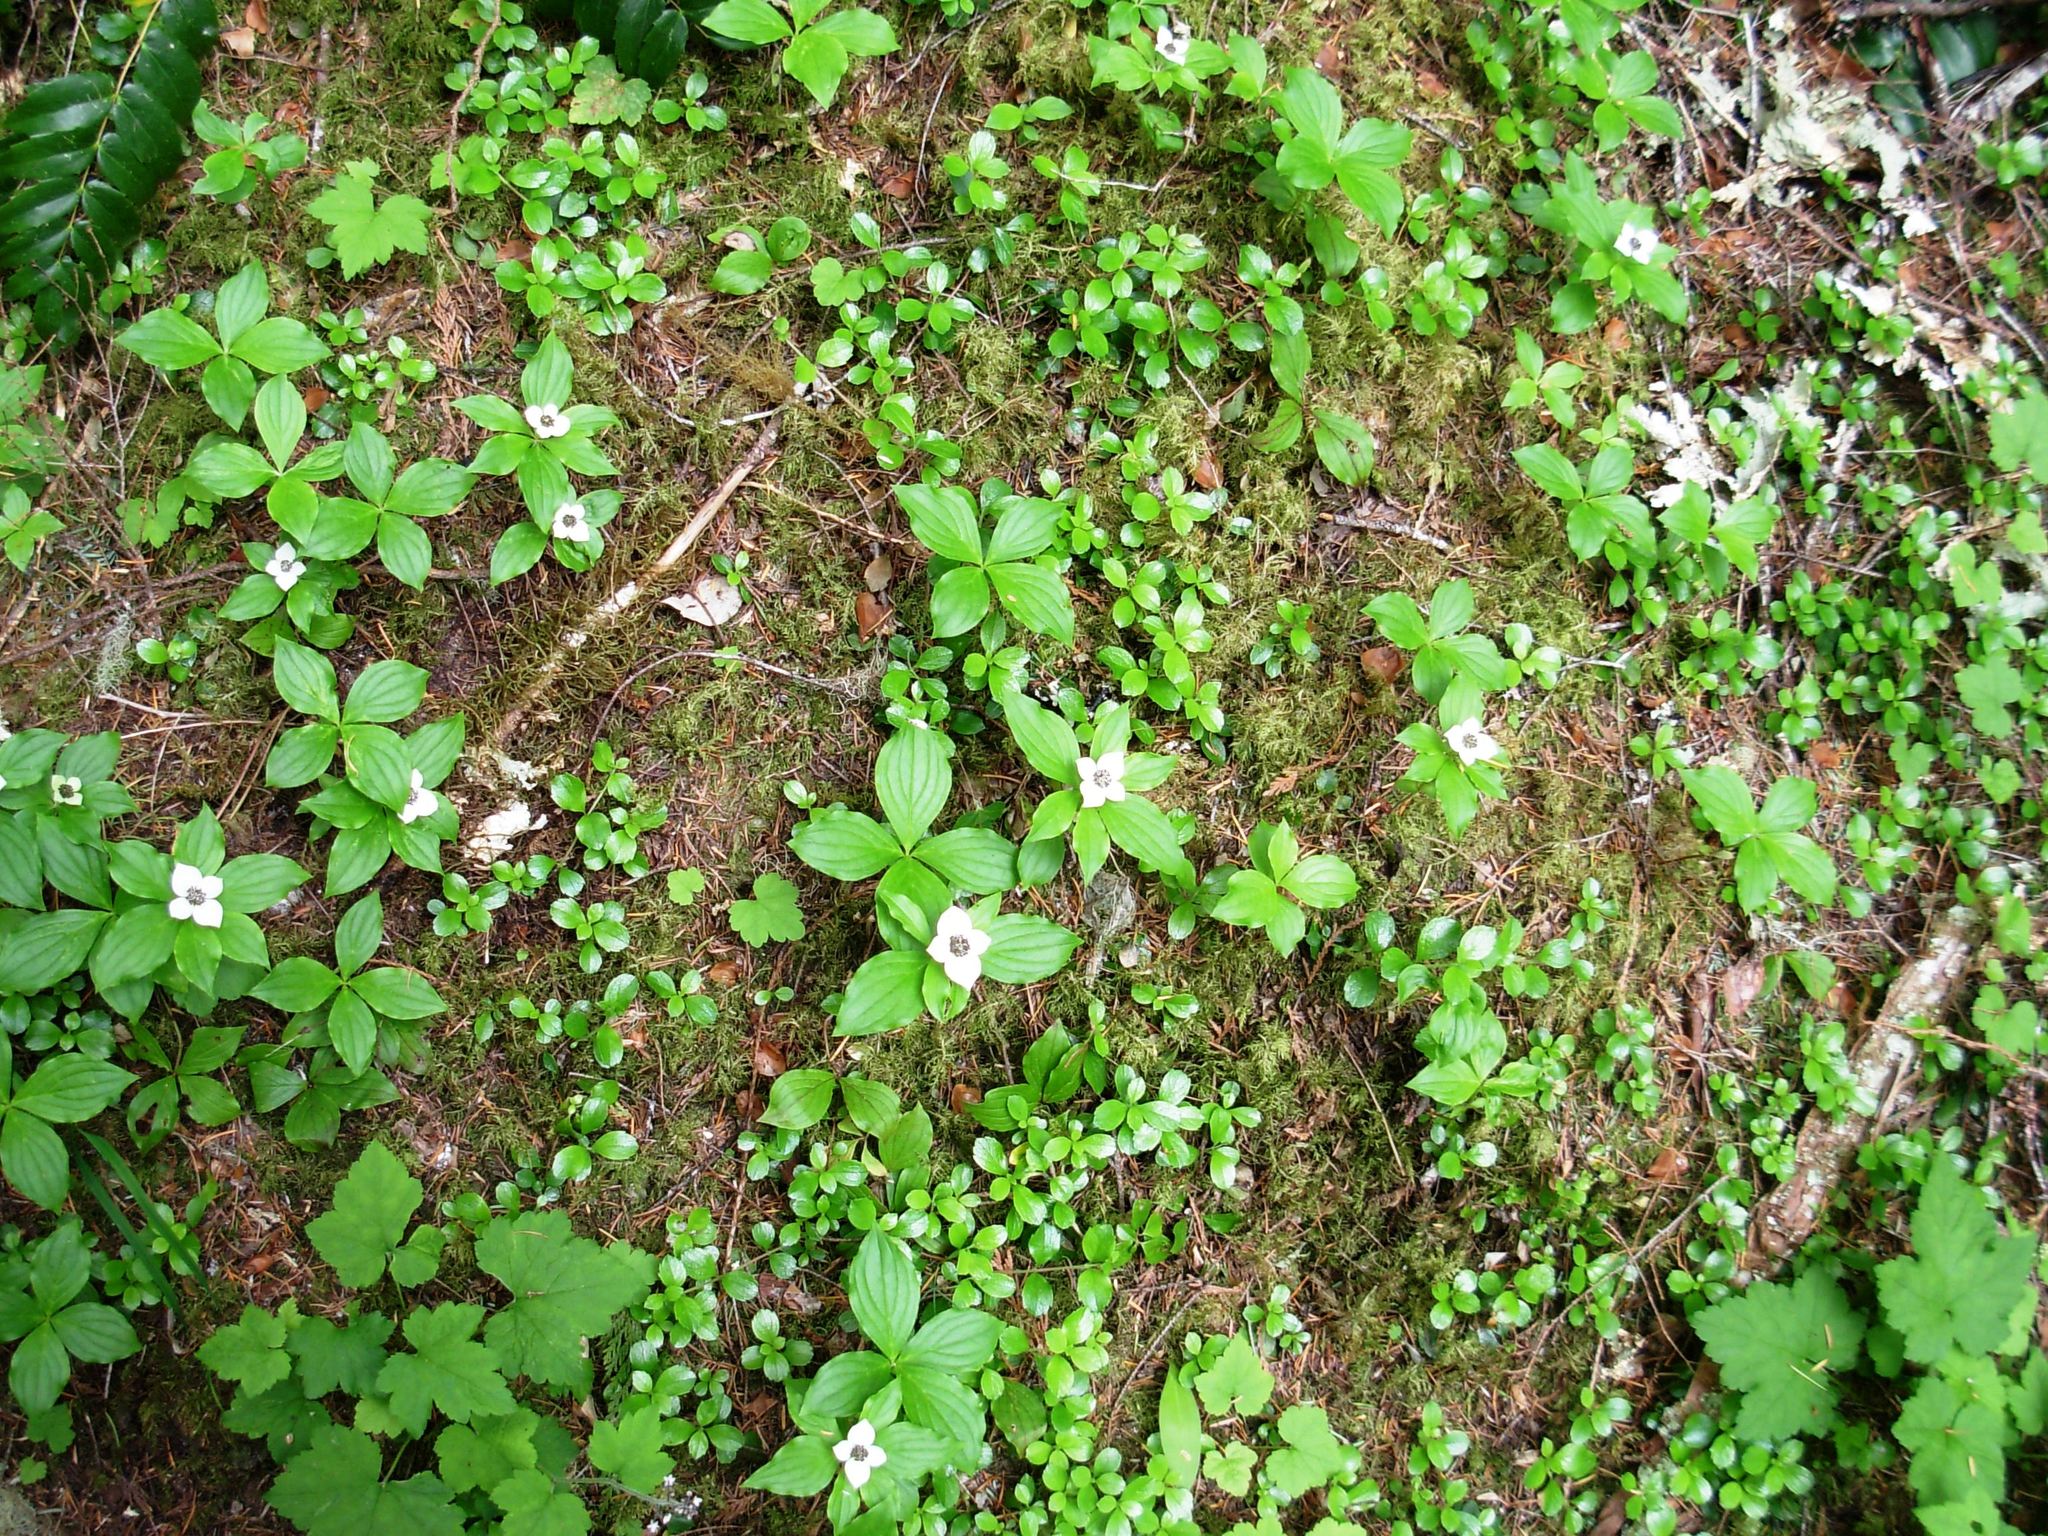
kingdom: Plantae
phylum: Tracheophyta
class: Magnoliopsida
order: Cornales
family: Cornaceae
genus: Cornus
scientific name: Cornus unalaschkensis
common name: Alaska bunchberry
